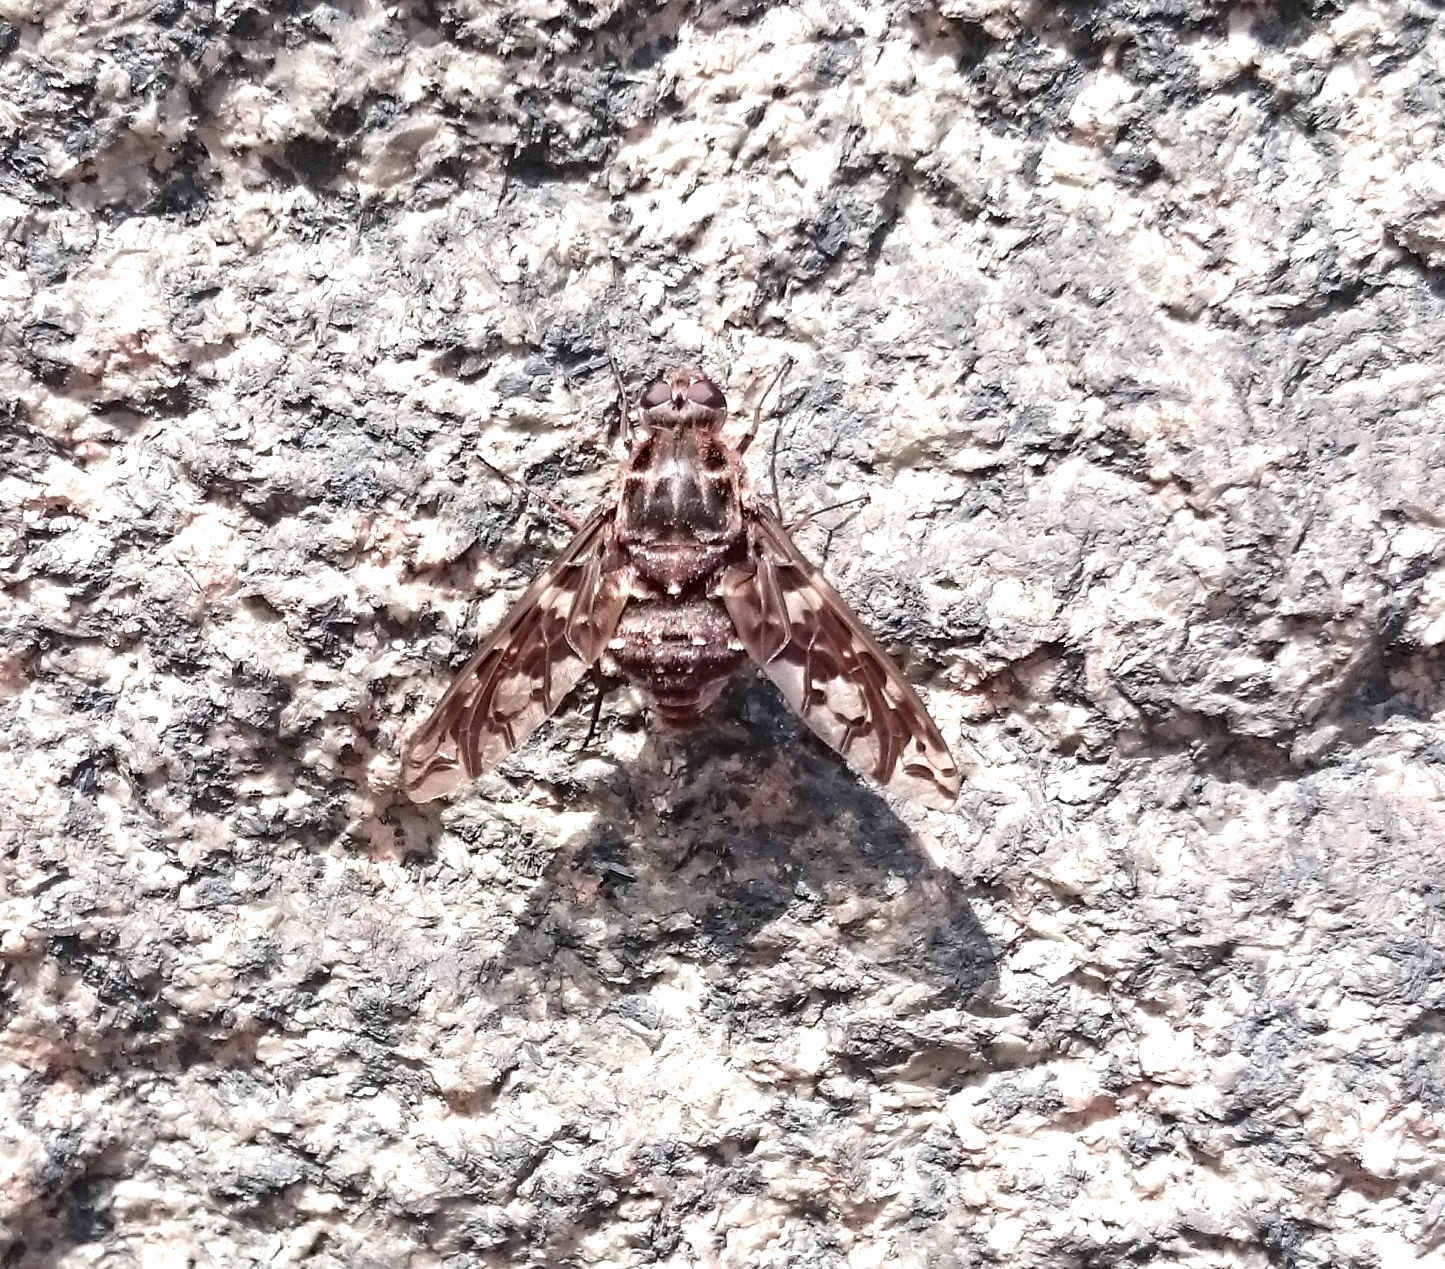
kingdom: Animalia
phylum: Arthropoda
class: Insecta
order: Diptera
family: Bombyliidae
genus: Xenox
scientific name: Xenox tigrinus
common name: Tiger bee fly
